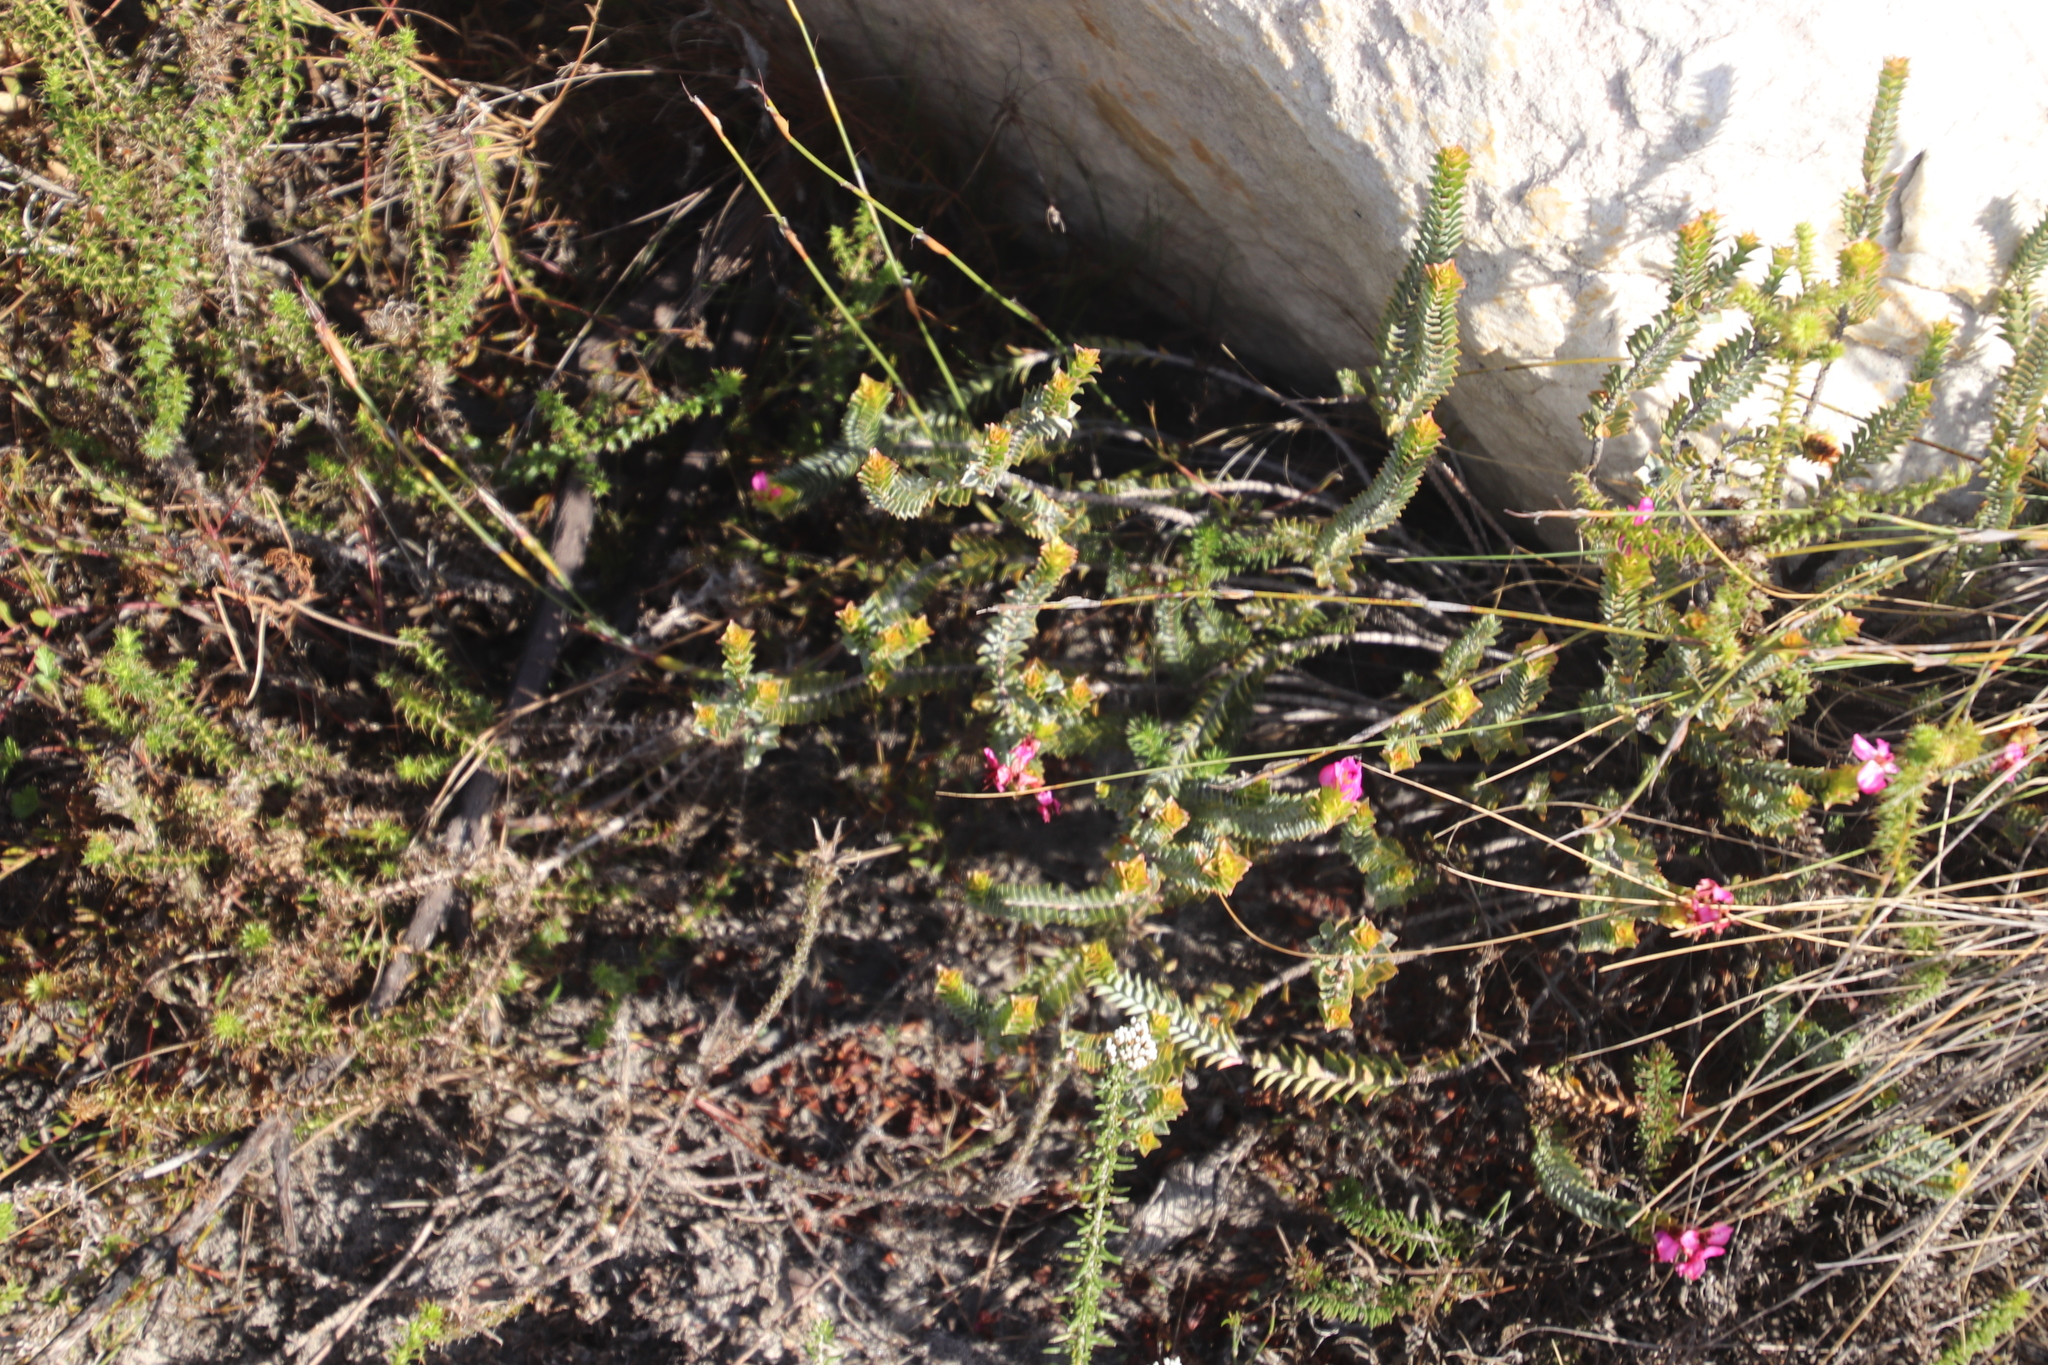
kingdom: Plantae
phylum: Tracheophyta
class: Magnoliopsida
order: Myrtales
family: Penaeaceae
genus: Saltera
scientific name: Saltera sarcocolla
